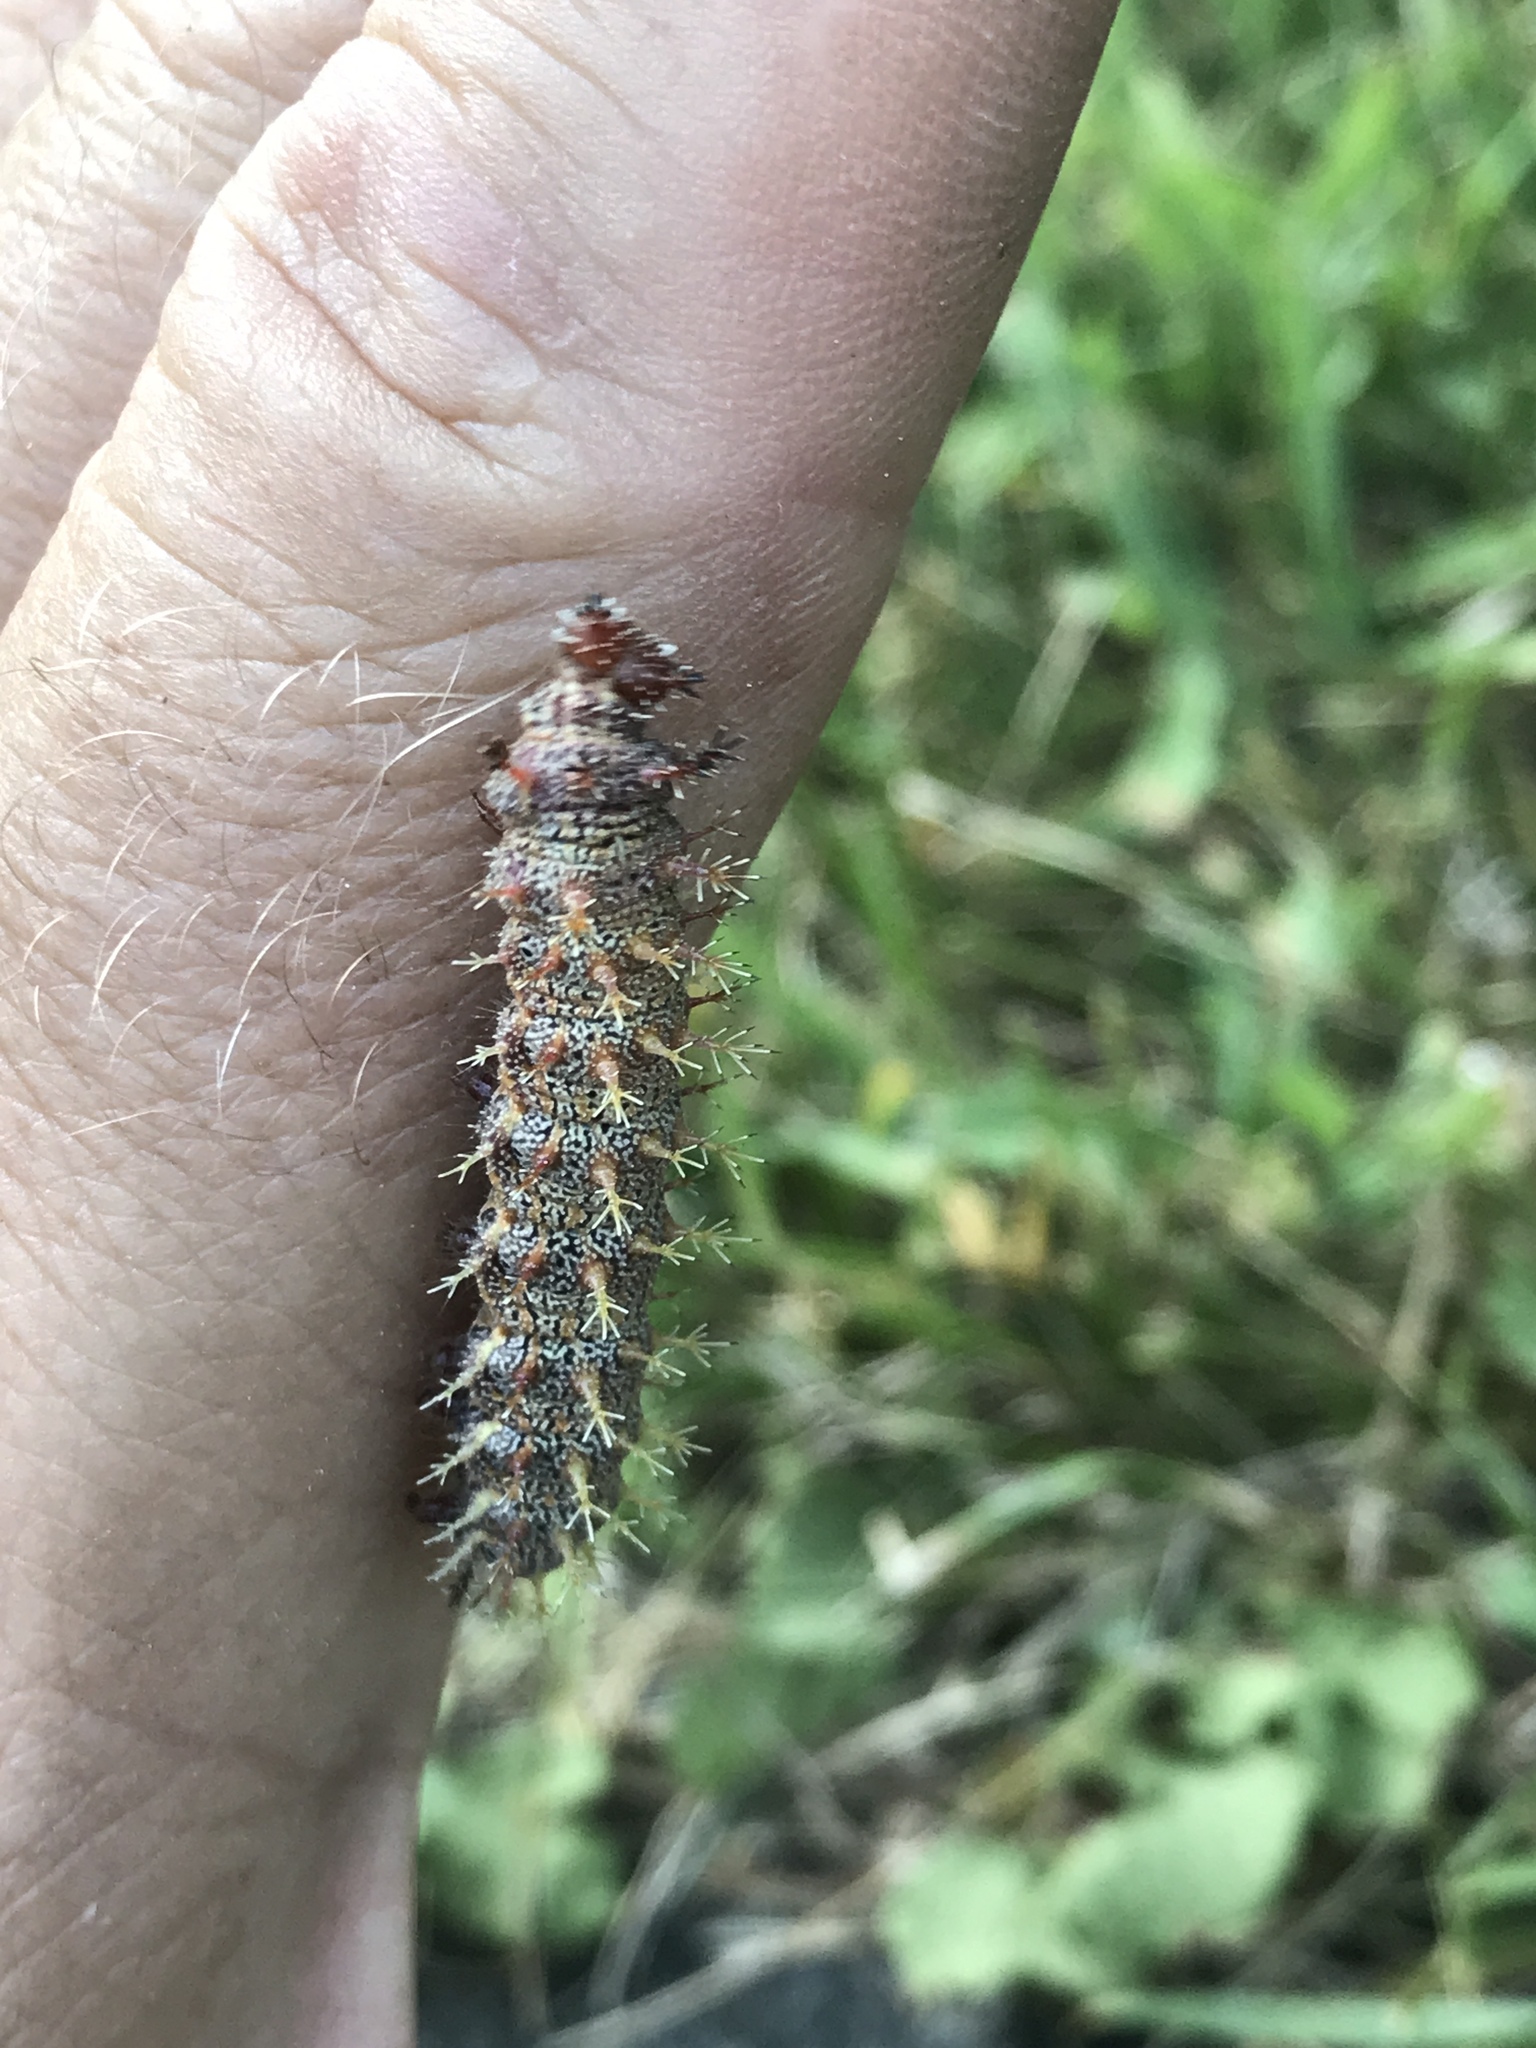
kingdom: Animalia
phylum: Arthropoda
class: Insecta
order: Lepidoptera
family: Nymphalidae
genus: Polygonia
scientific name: Polygonia interrogationis
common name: Question mark
